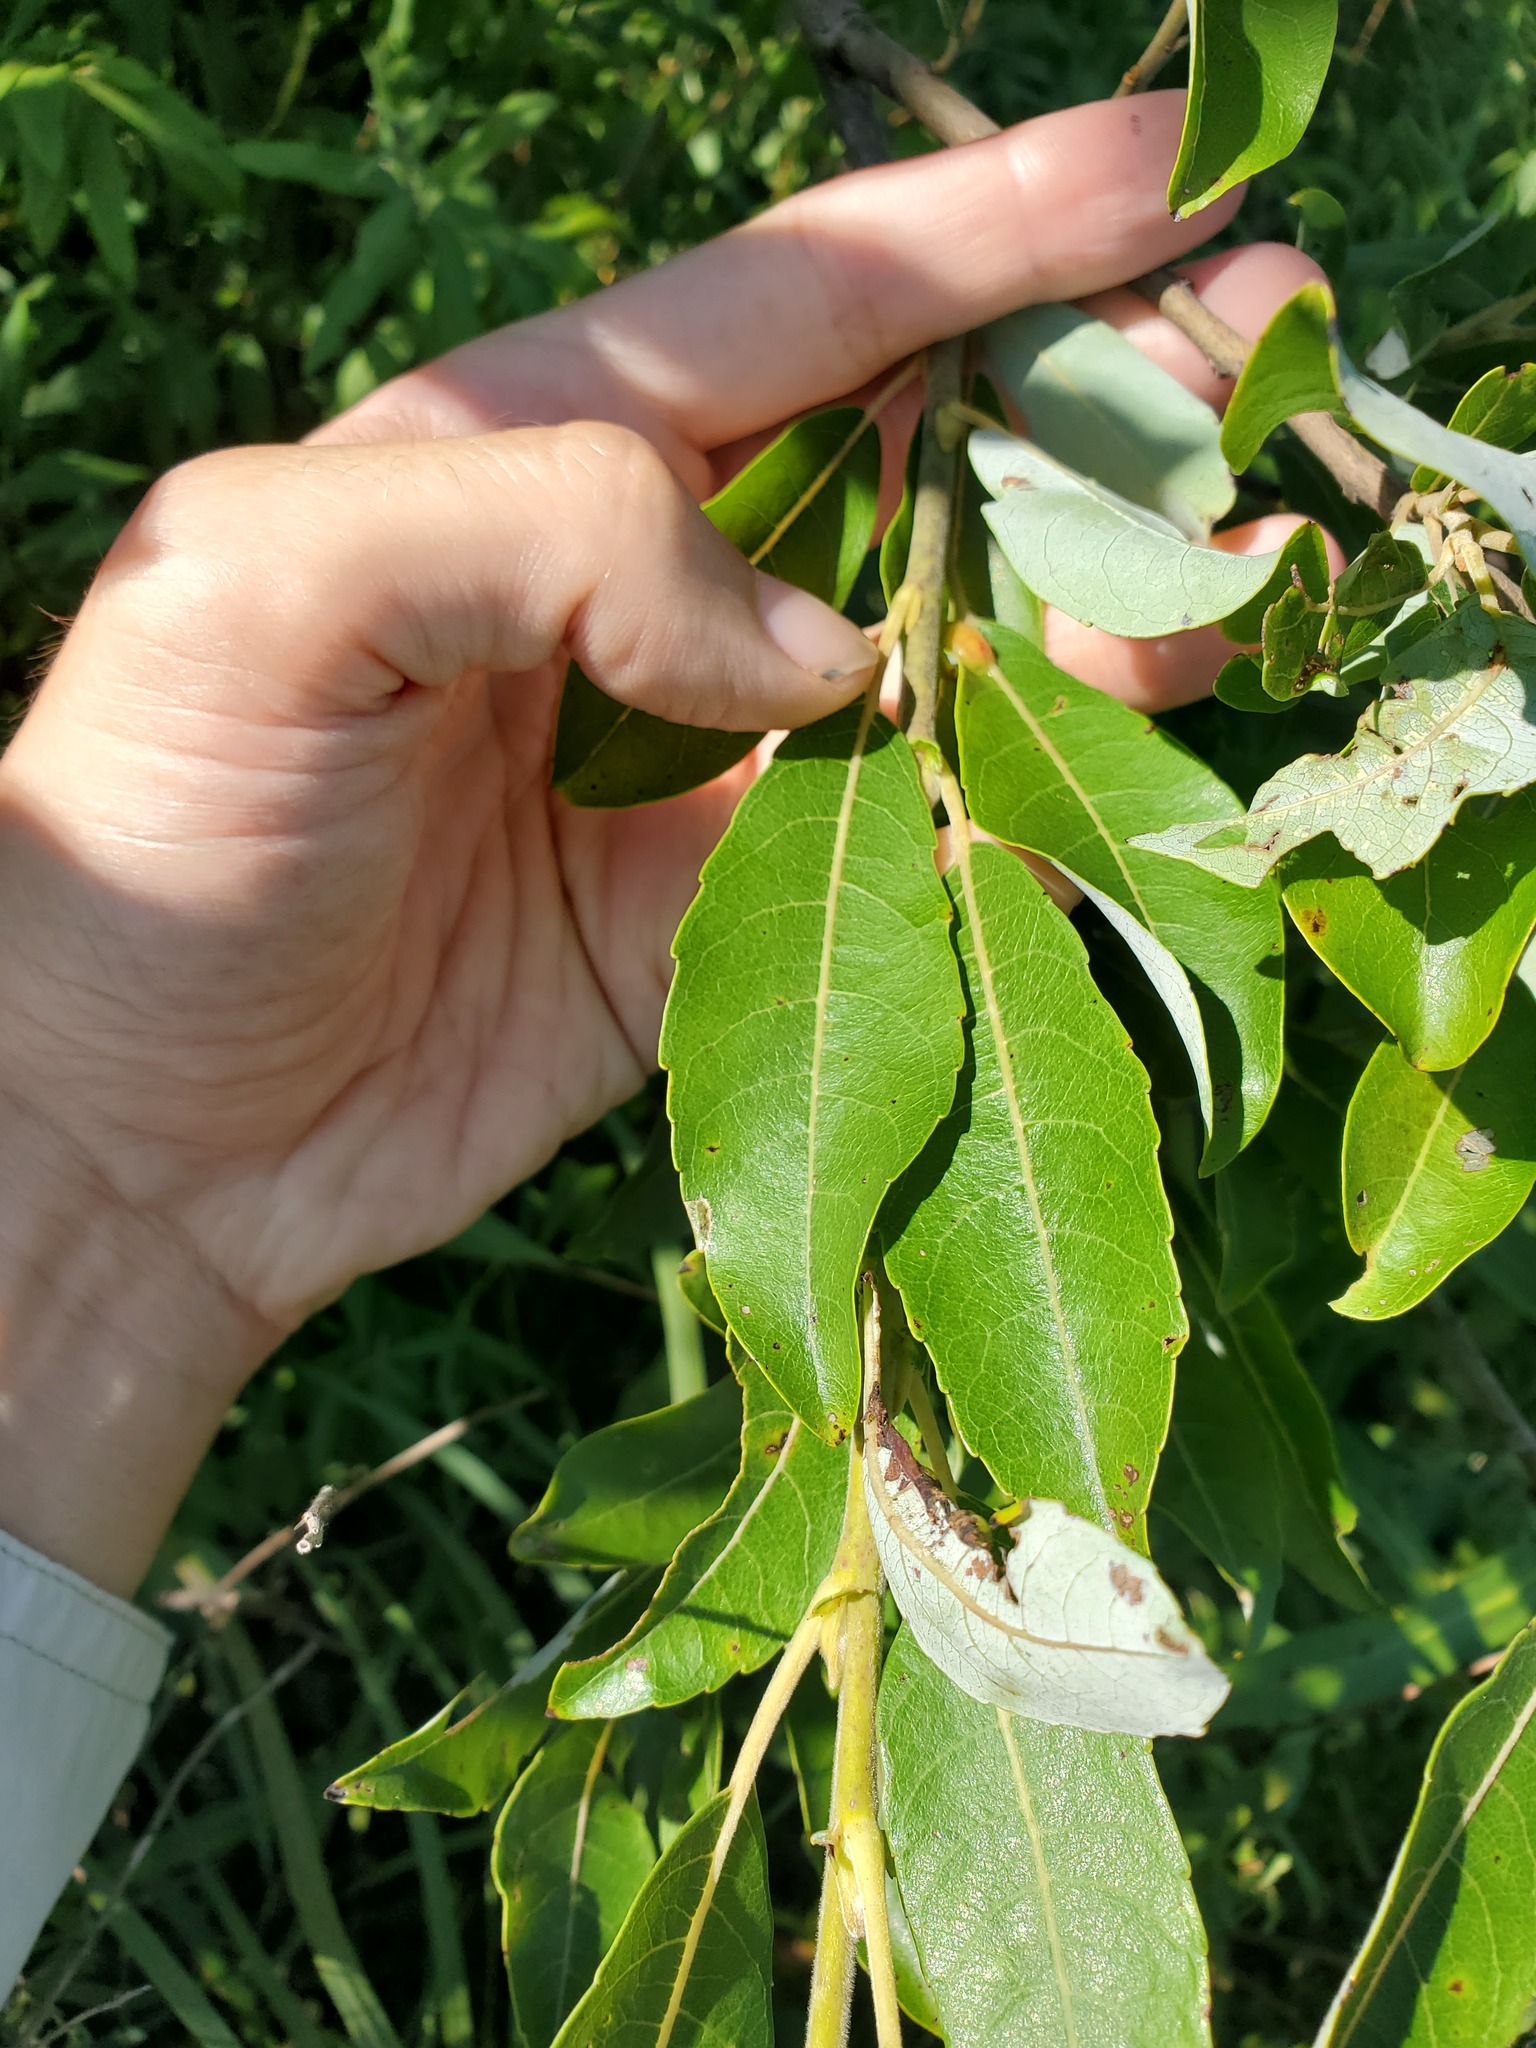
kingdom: Plantae
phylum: Tracheophyta
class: Magnoliopsida
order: Malpighiales
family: Salicaceae
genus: Salix
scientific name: Salix discolor
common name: Glaucous willow
